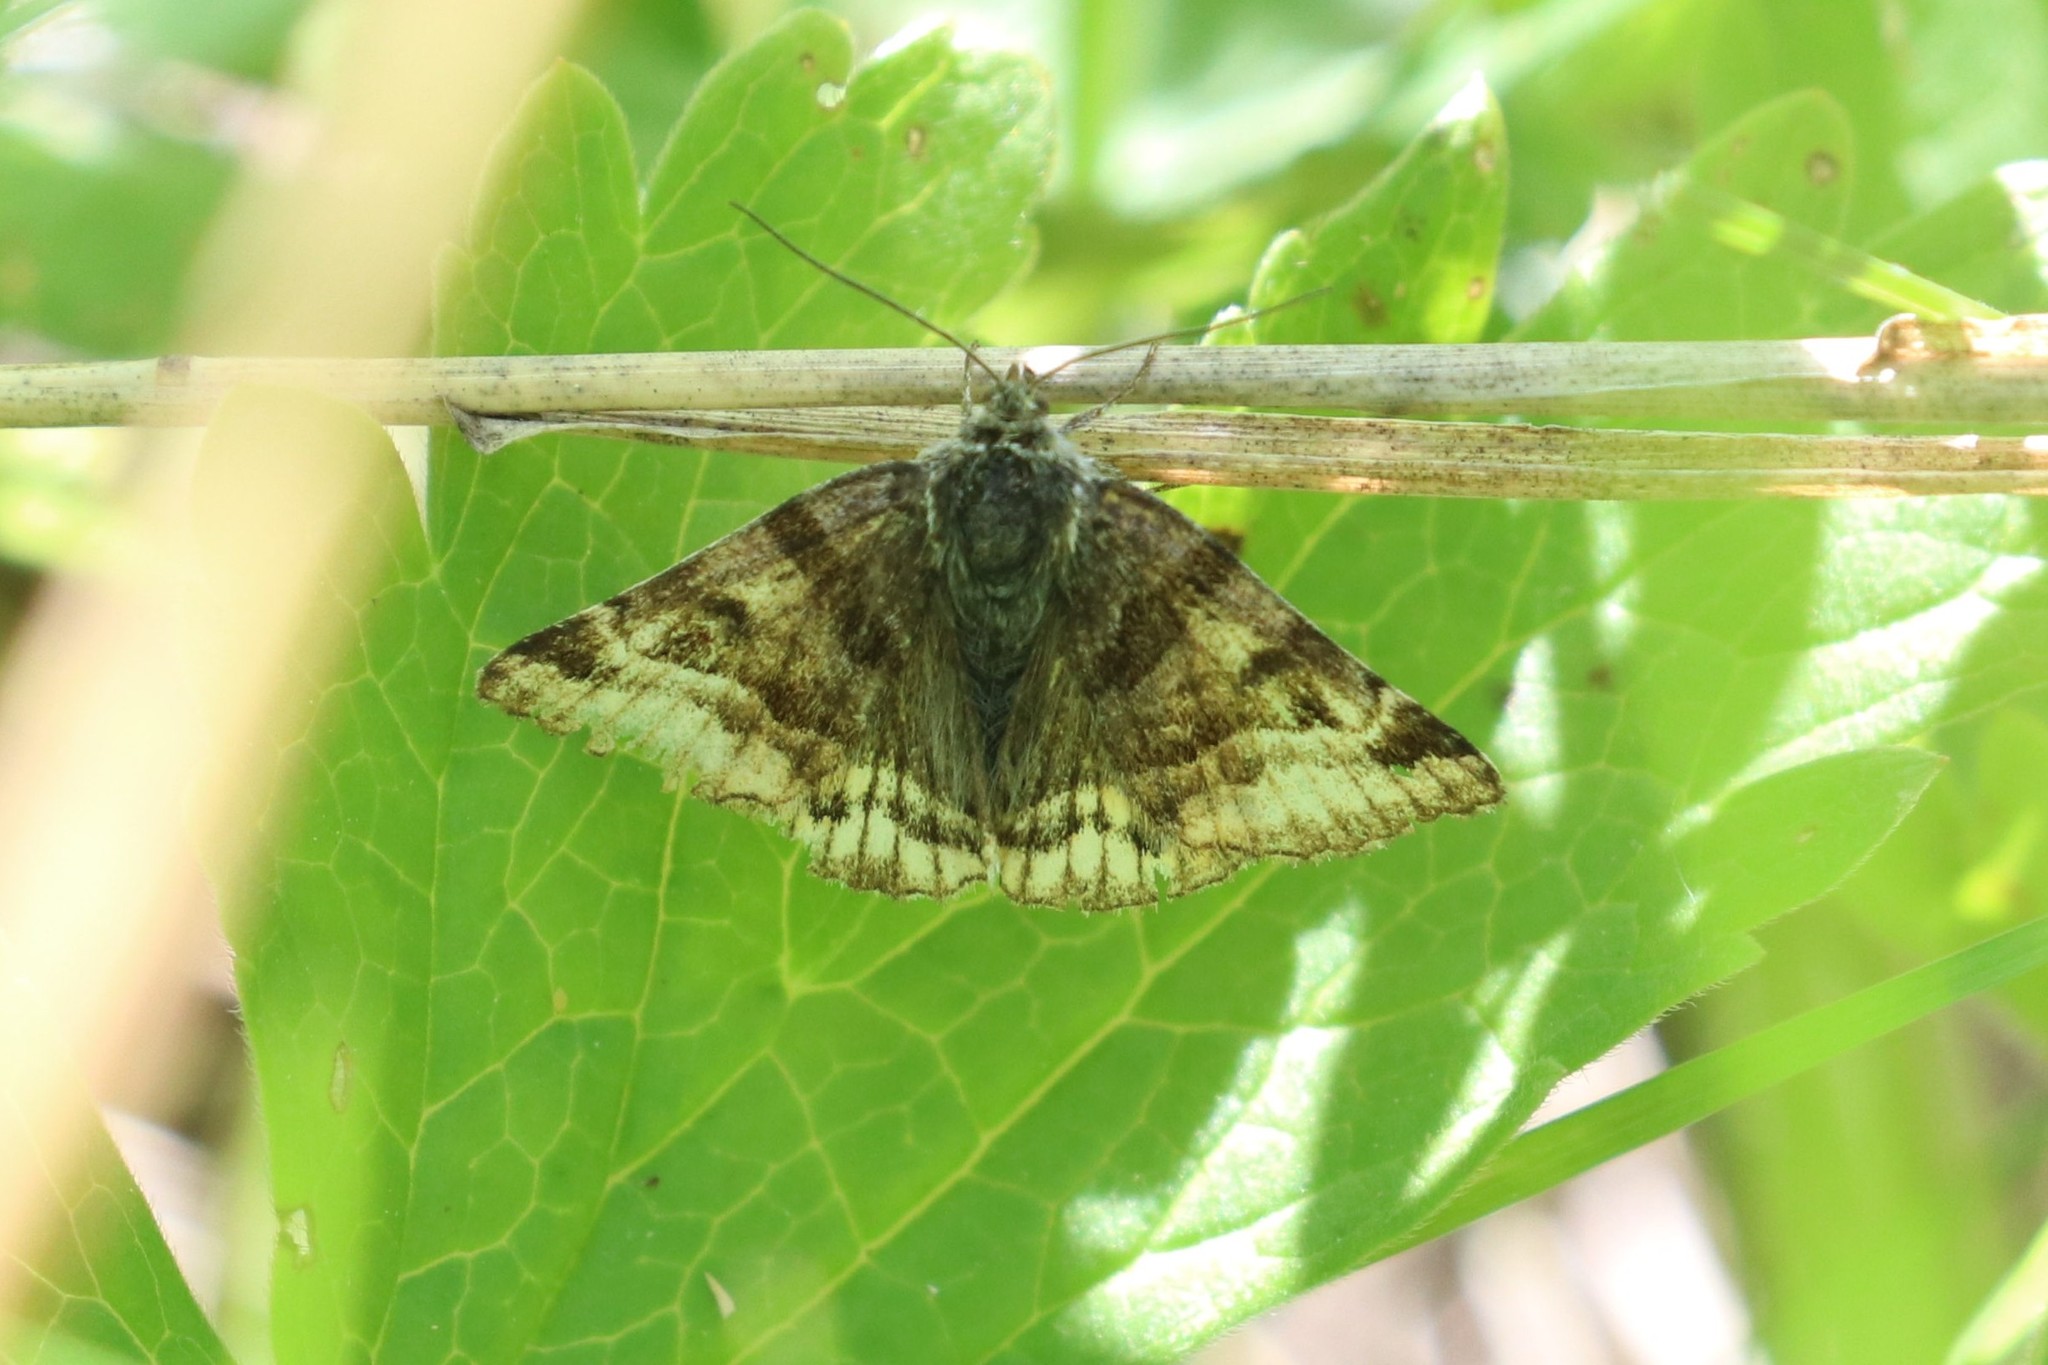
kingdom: Animalia
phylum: Arthropoda
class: Insecta
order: Lepidoptera
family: Erebidae
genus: Euclidia
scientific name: Euclidia glyphica
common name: Burnet companion
